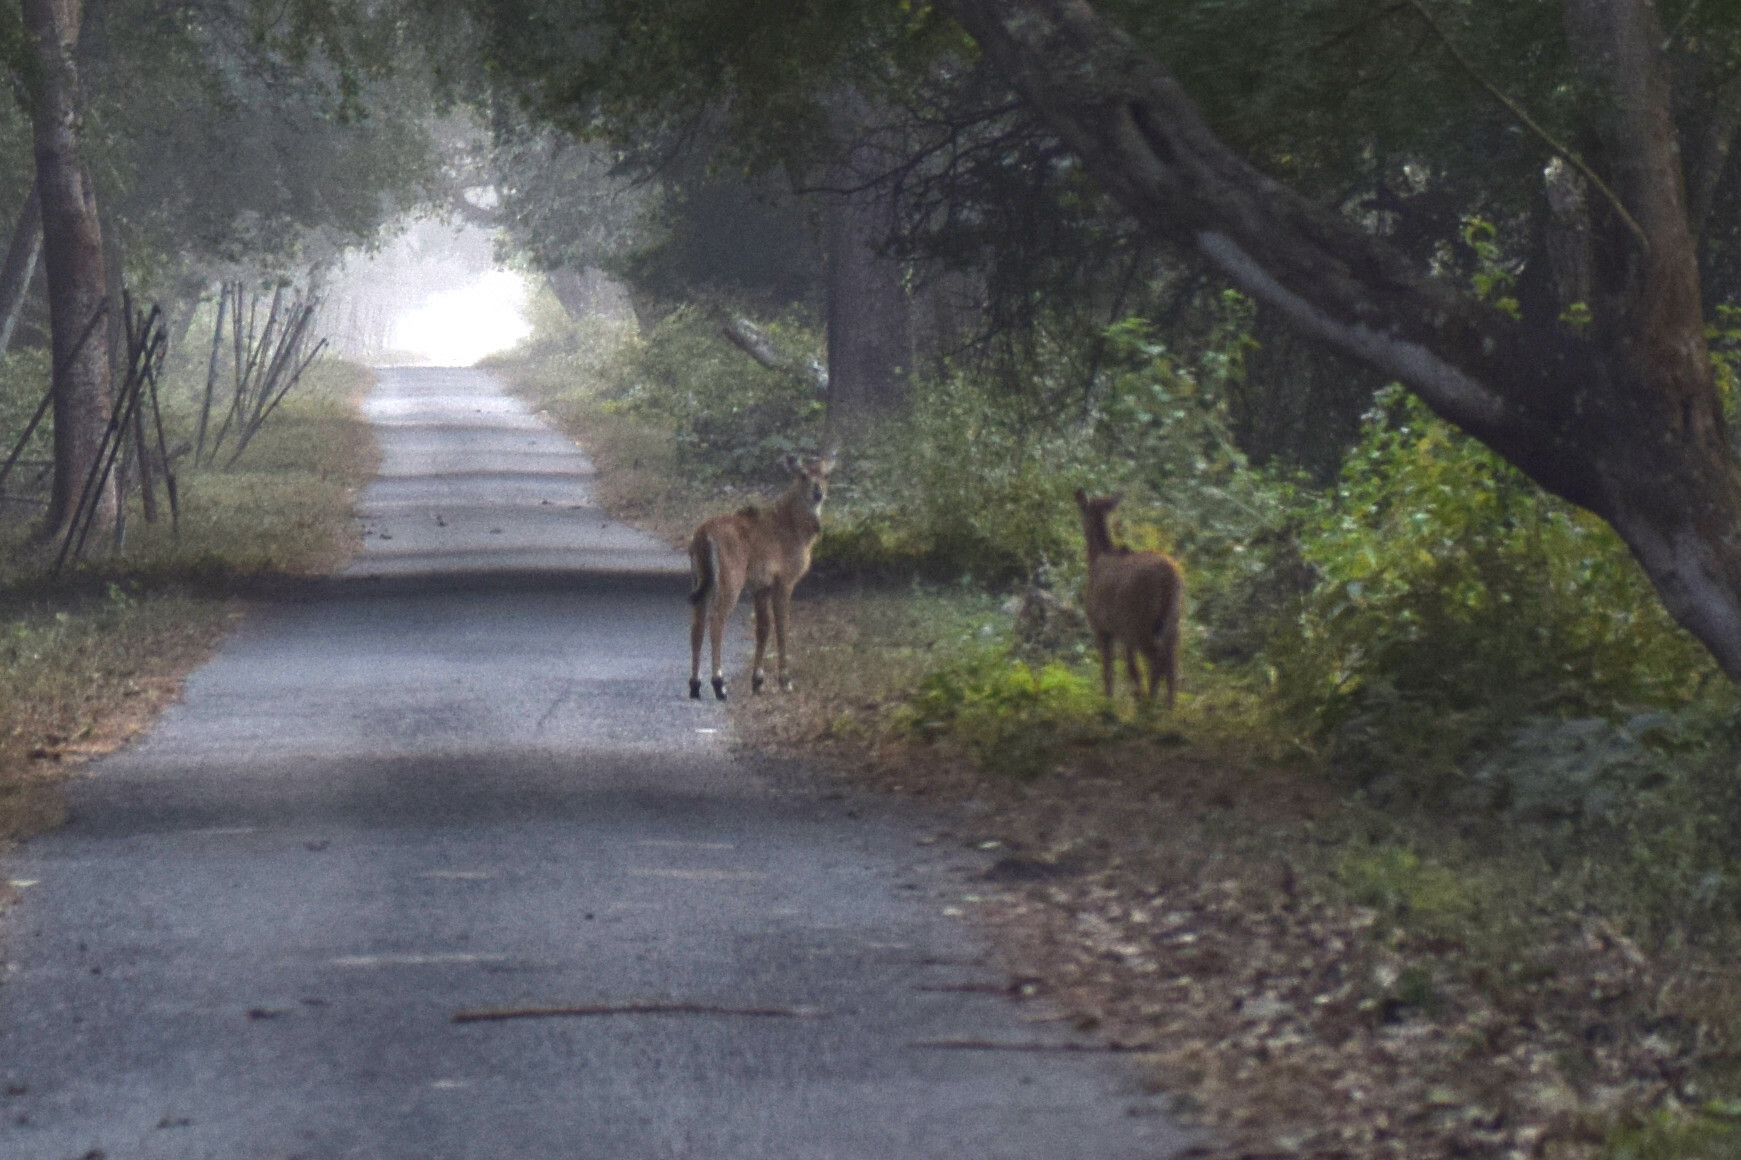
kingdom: Animalia
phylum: Chordata
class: Mammalia
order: Artiodactyla
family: Bovidae
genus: Boselaphus
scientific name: Boselaphus tragocamelus
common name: Nilgai
